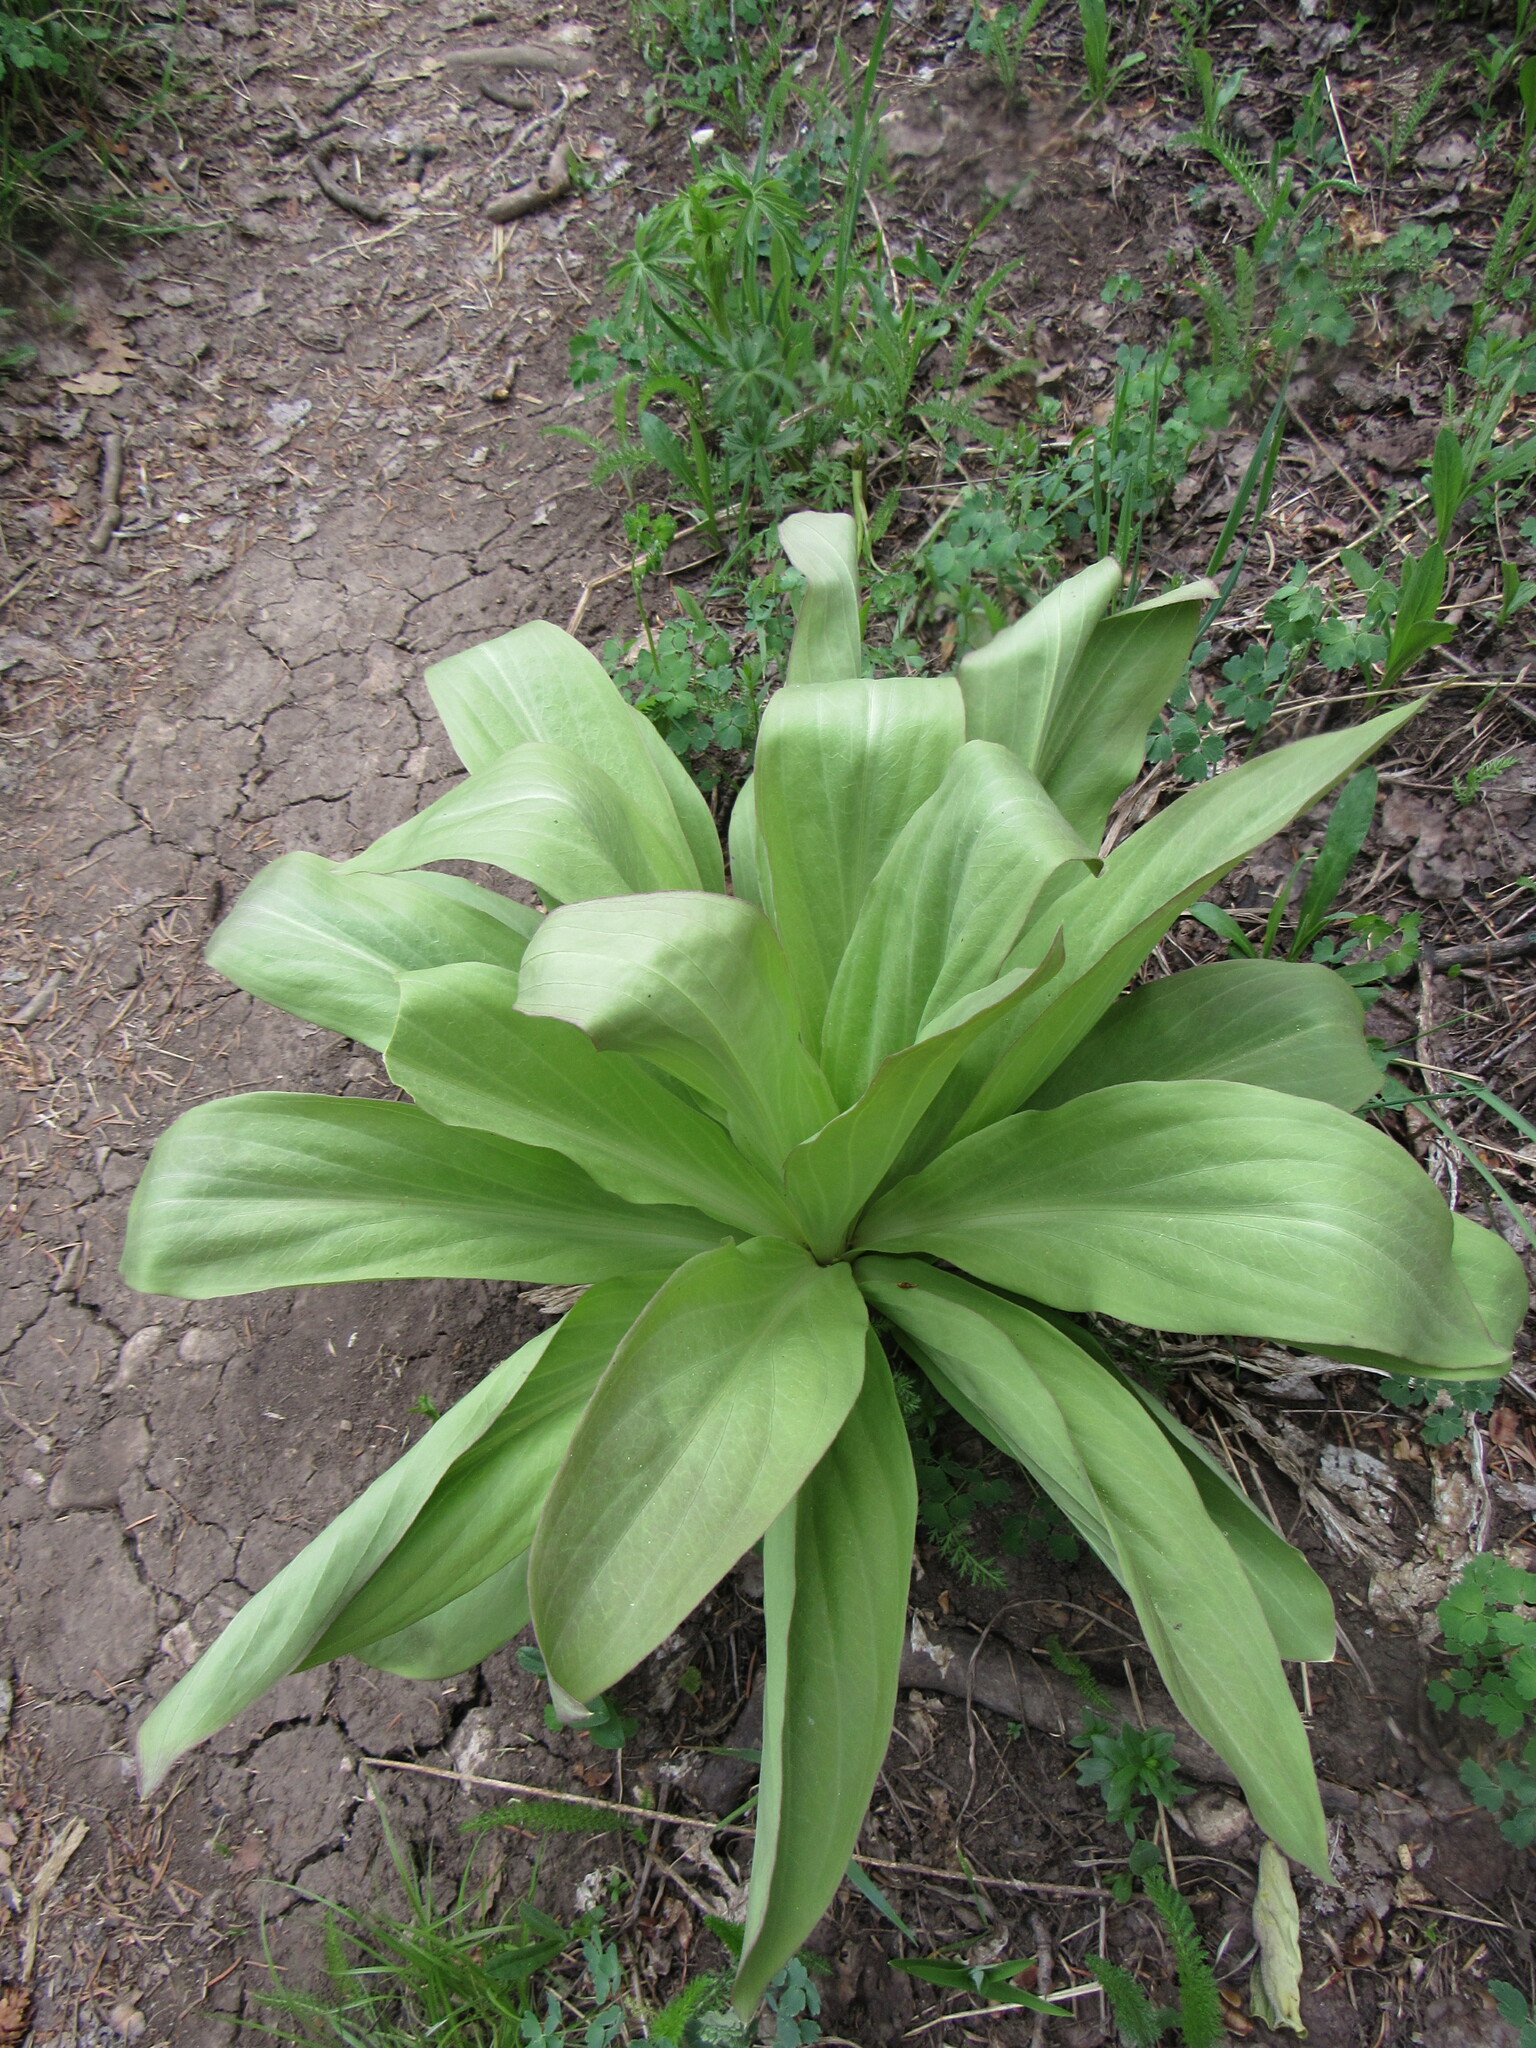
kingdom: Plantae
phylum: Tracheophyta
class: Magnoliopsida
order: Gentianales
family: Gentianaceae
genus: Frasera
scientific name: Frasera speciosa
